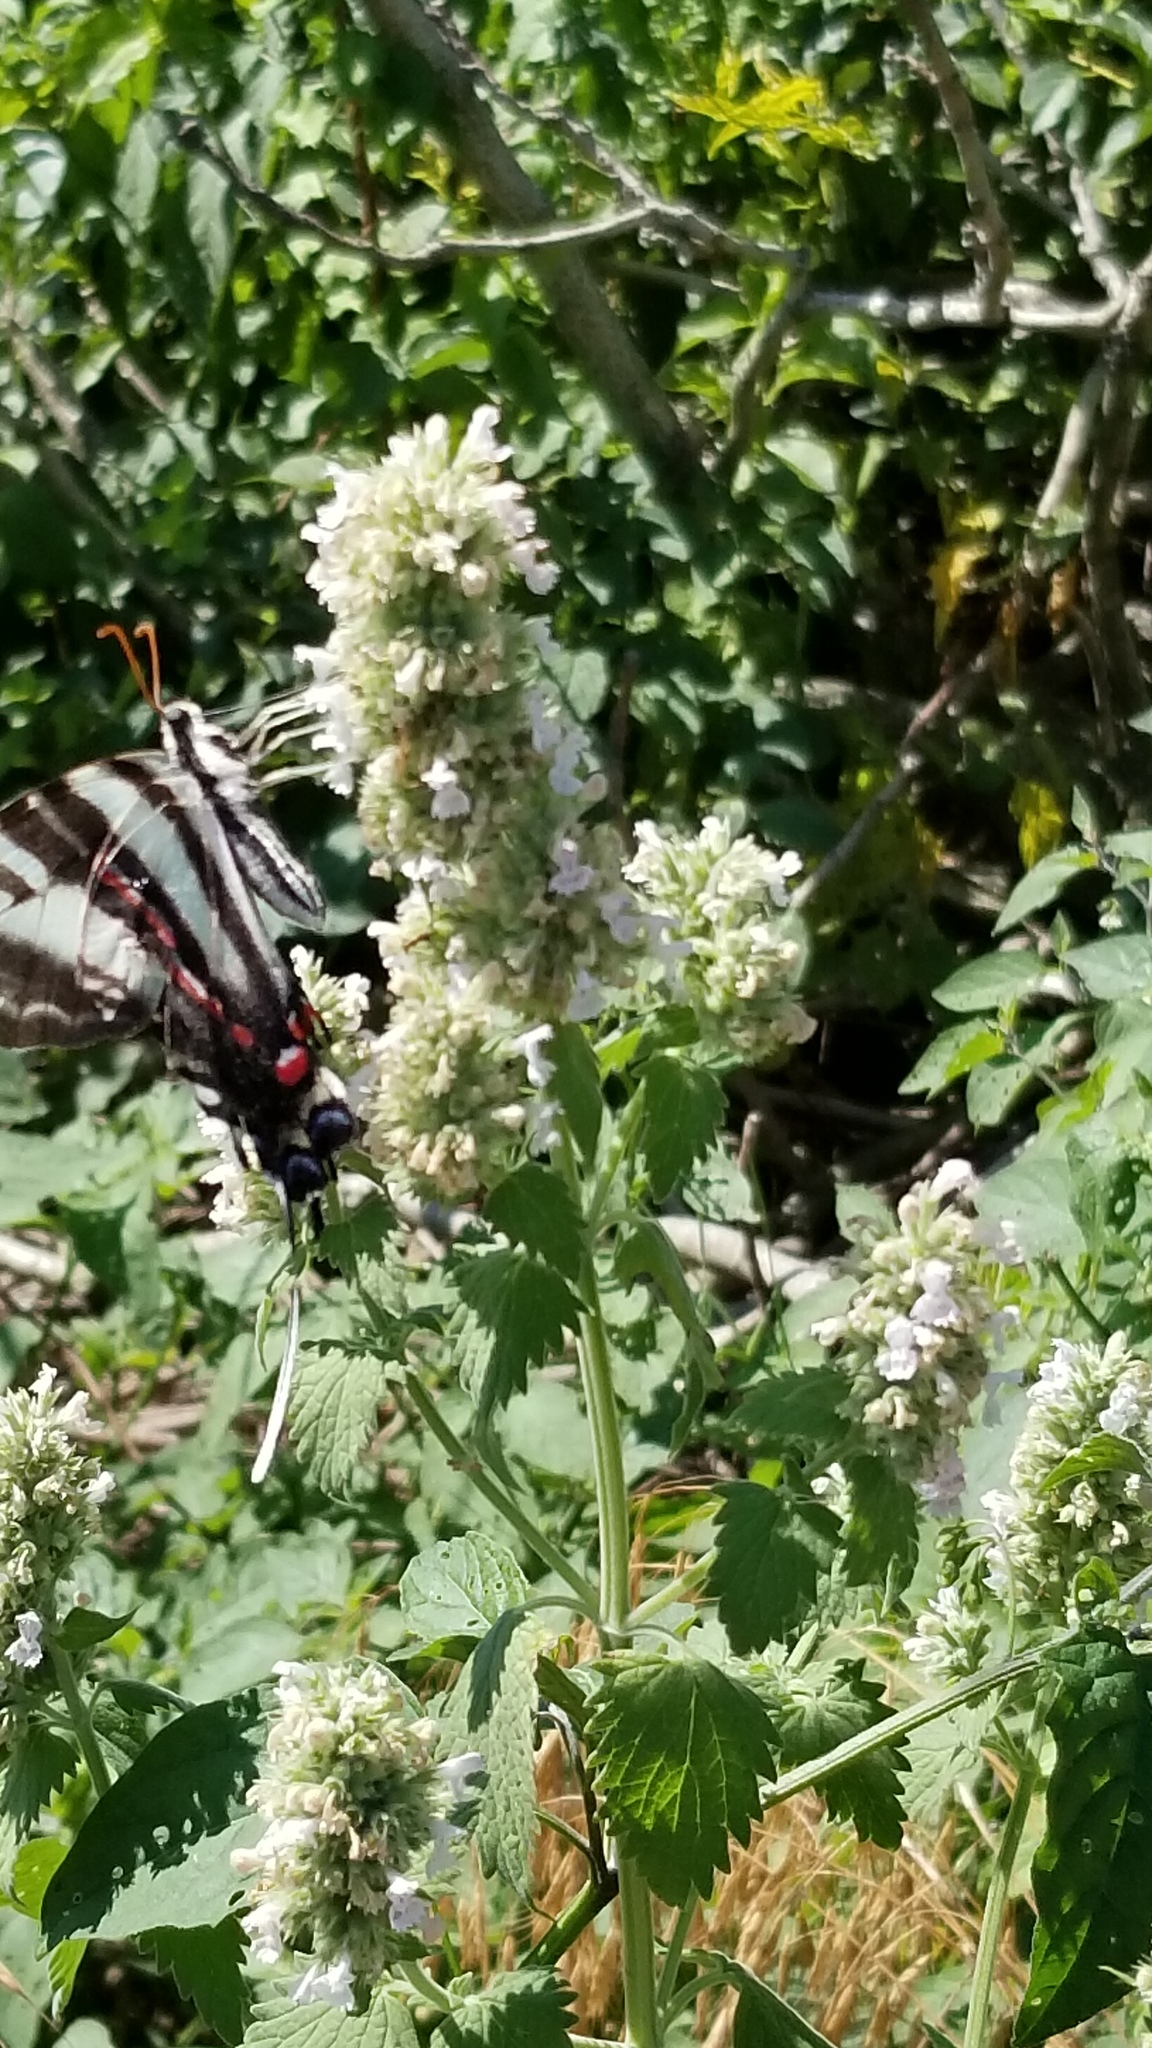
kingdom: Animalia
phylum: Arthropoda
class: Insecta
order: Lepidoptera
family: Papilionidae
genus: Protographium
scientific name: Protographium marcellus
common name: Zebra swallowtail
